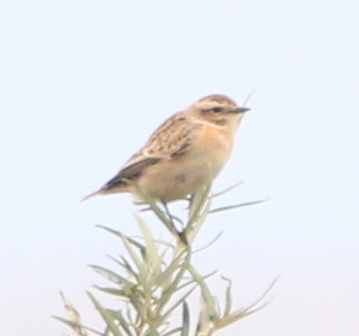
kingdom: Animalia
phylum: Chordata
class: Aves
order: Passeriformes
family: Muscicapidae
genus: Saxicola
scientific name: Saxicola rubetra
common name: Whinchat
